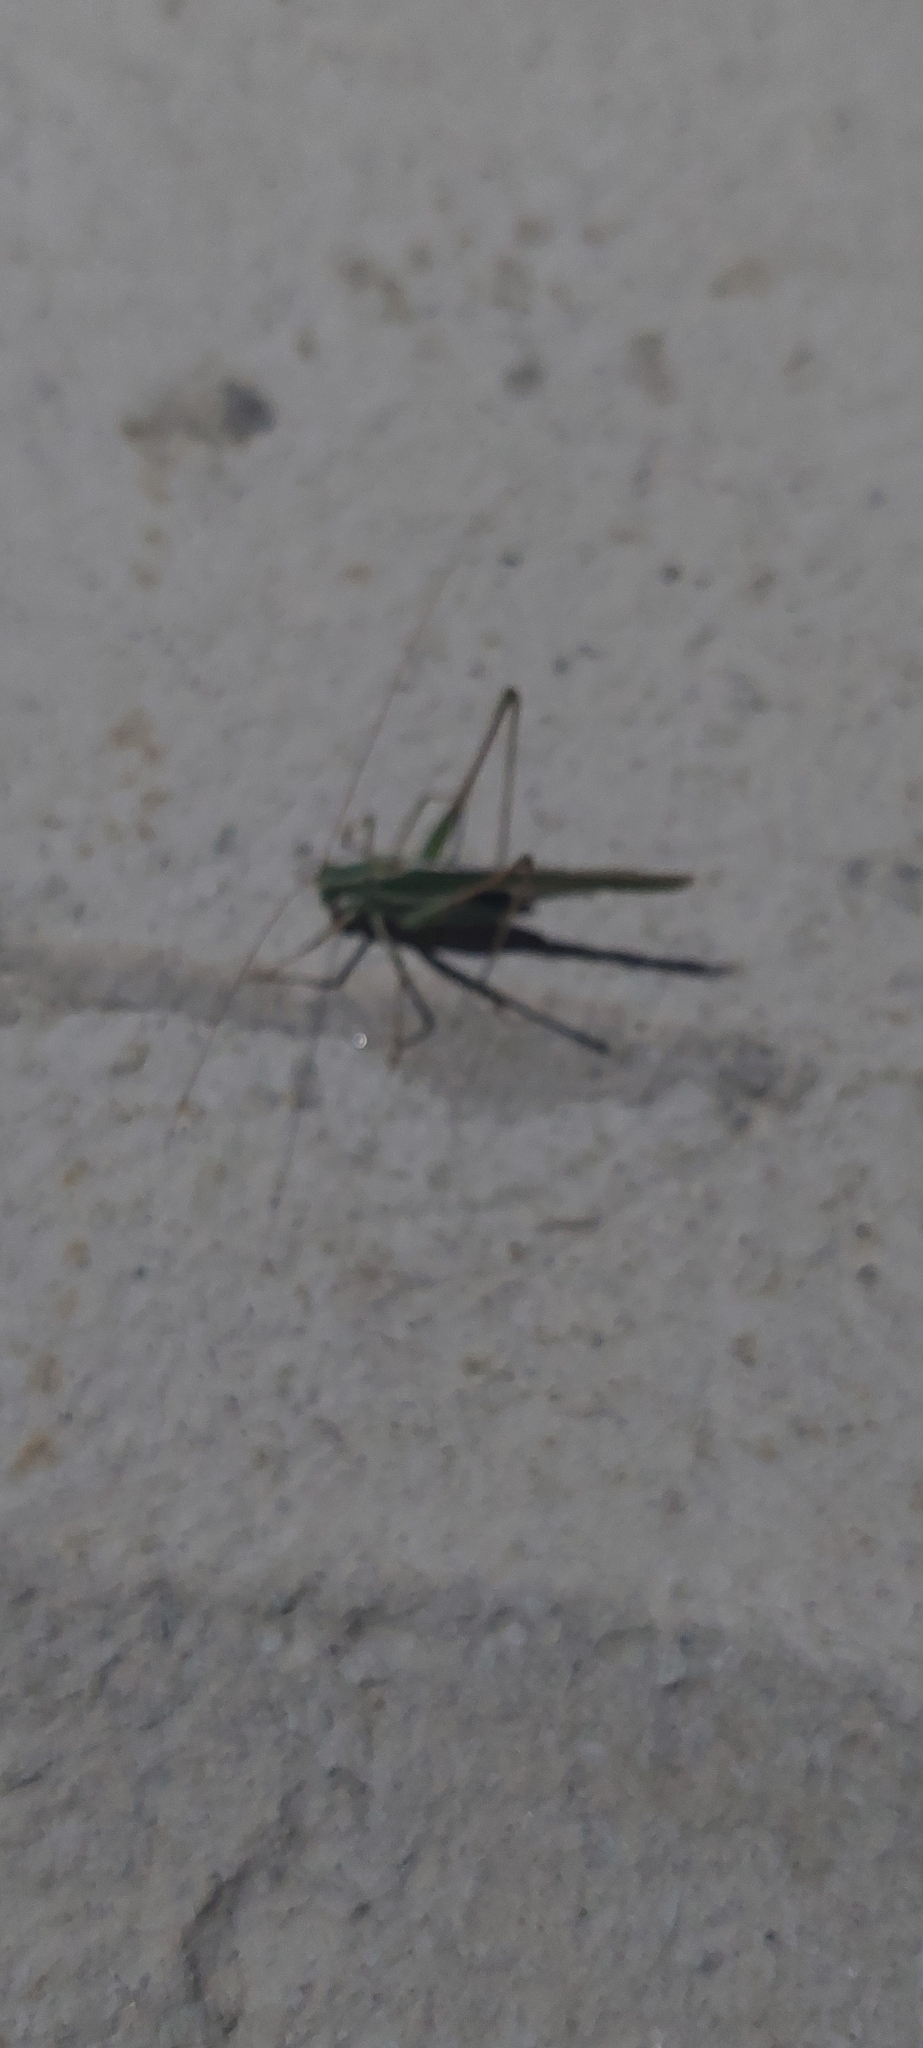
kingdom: Animalia
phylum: Arthropoda
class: Insecta
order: Orthoptera
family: Tettigoniidae
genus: Burgilis
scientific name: Burgilis curta
